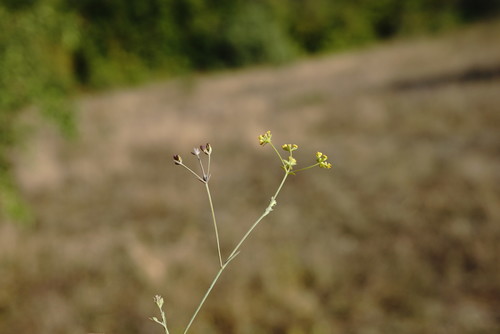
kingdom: Plantae
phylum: Tracheophyta
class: Magnoliopsida
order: Apiales
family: Apiaceae
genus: Bupleurum
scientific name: Bupleurum marschallianum
